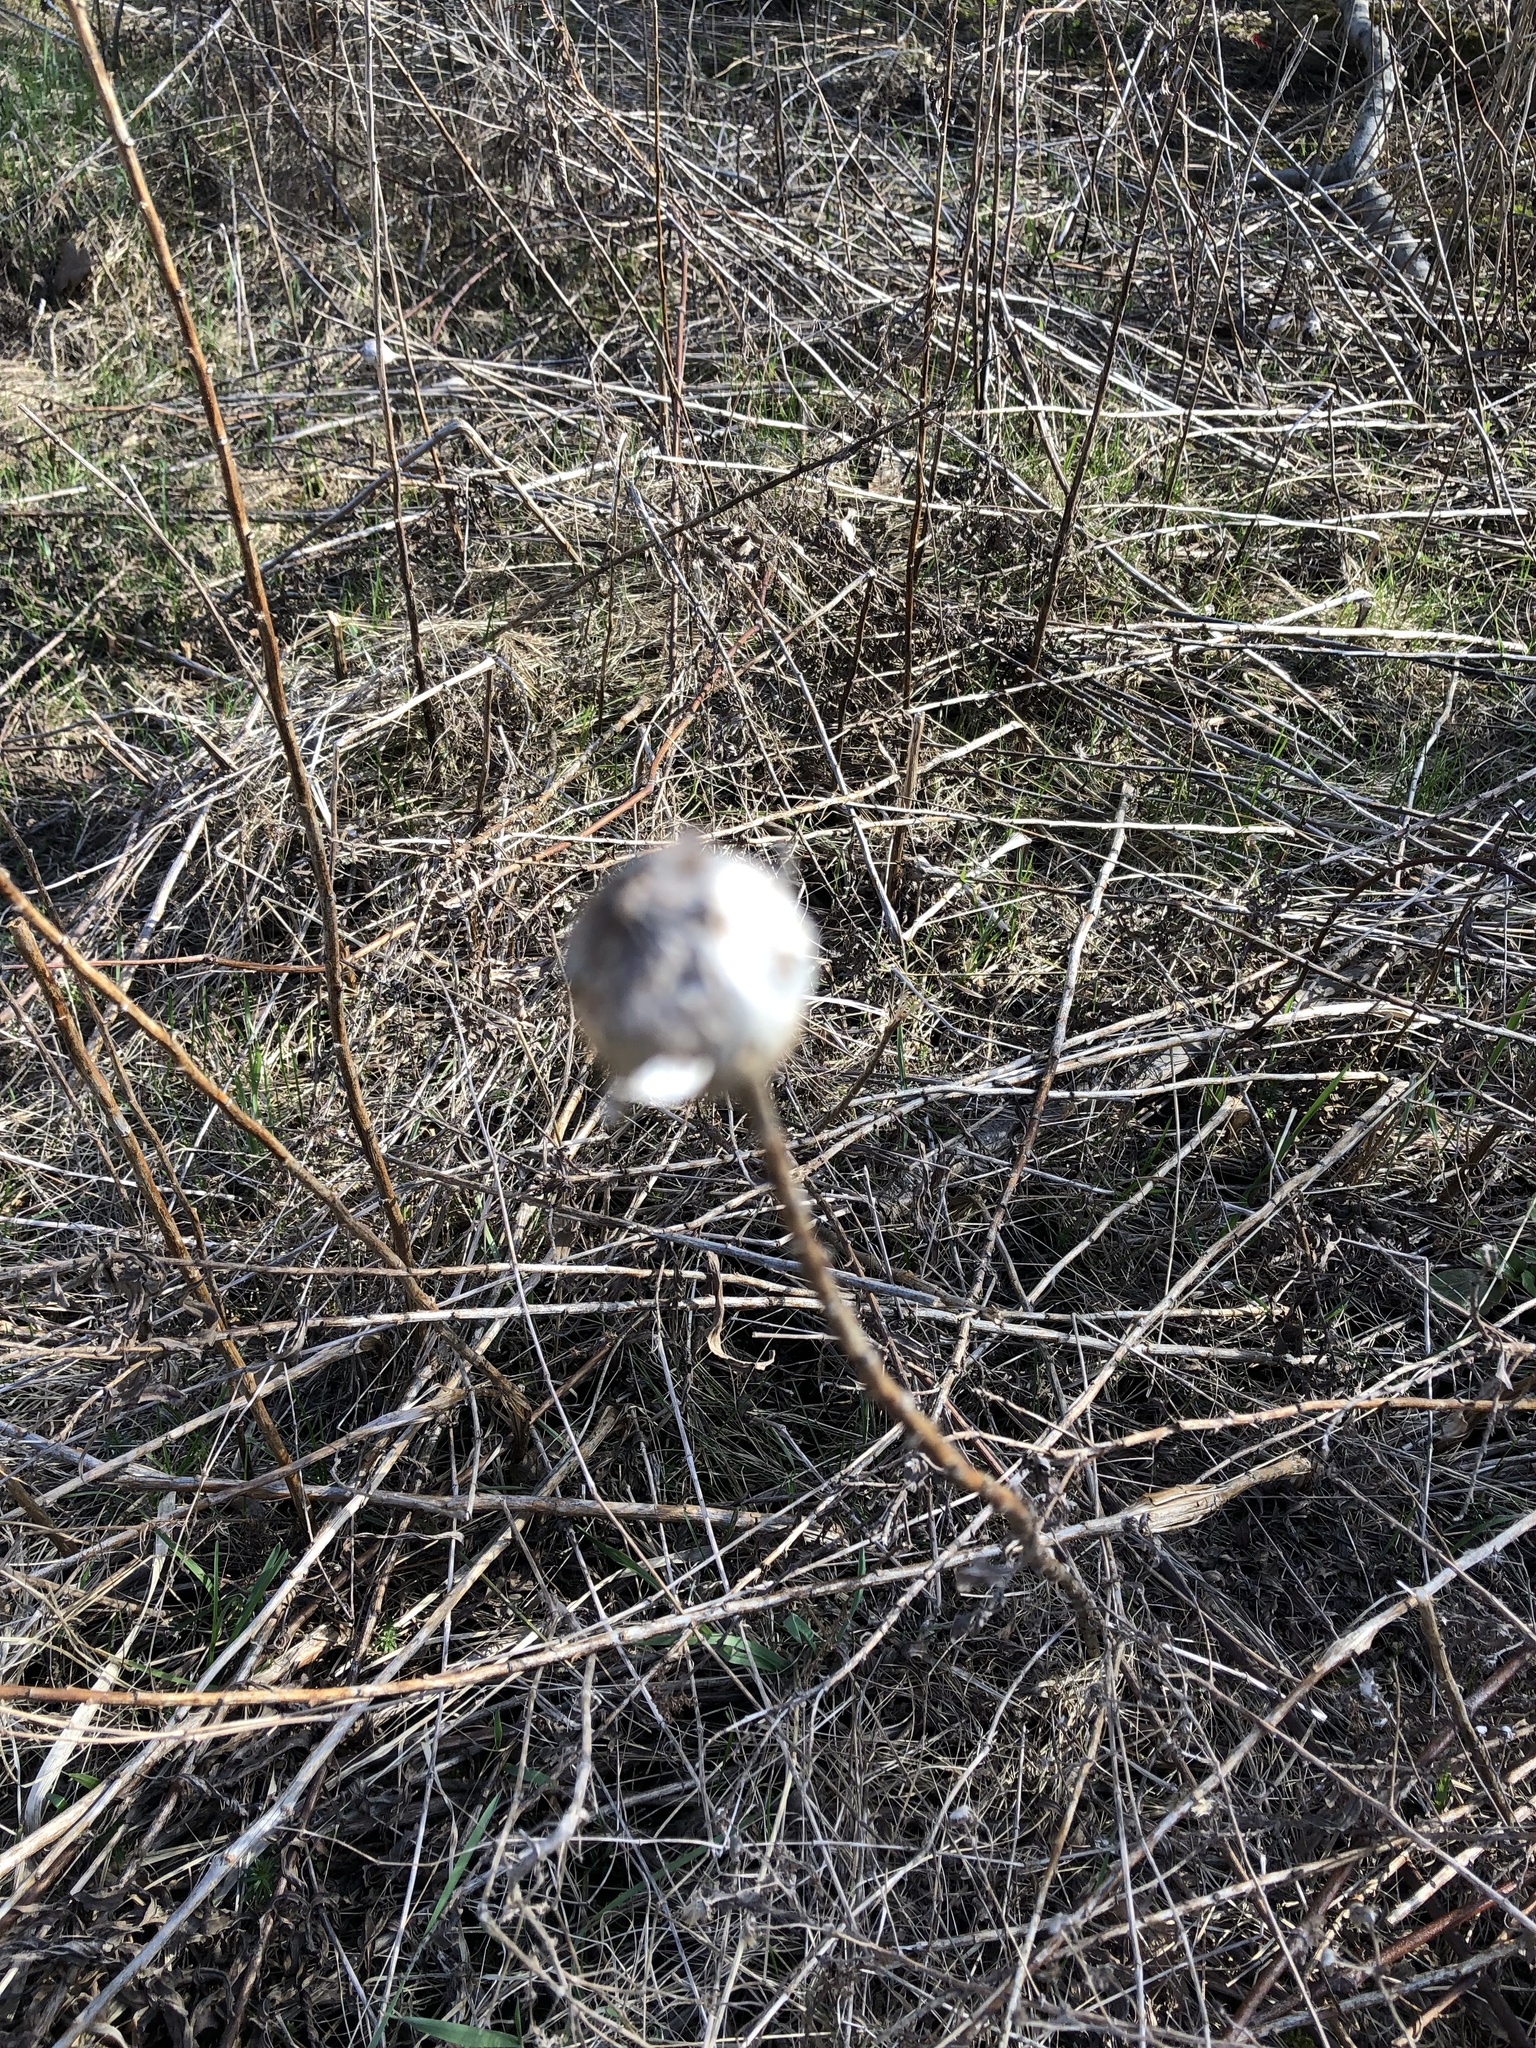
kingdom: Animalia
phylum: Arthropoda
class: Insecta
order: Diptera
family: Tephritidae
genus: Eurosta
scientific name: Eurosta solidaginis
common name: Goldenrod gall fly
